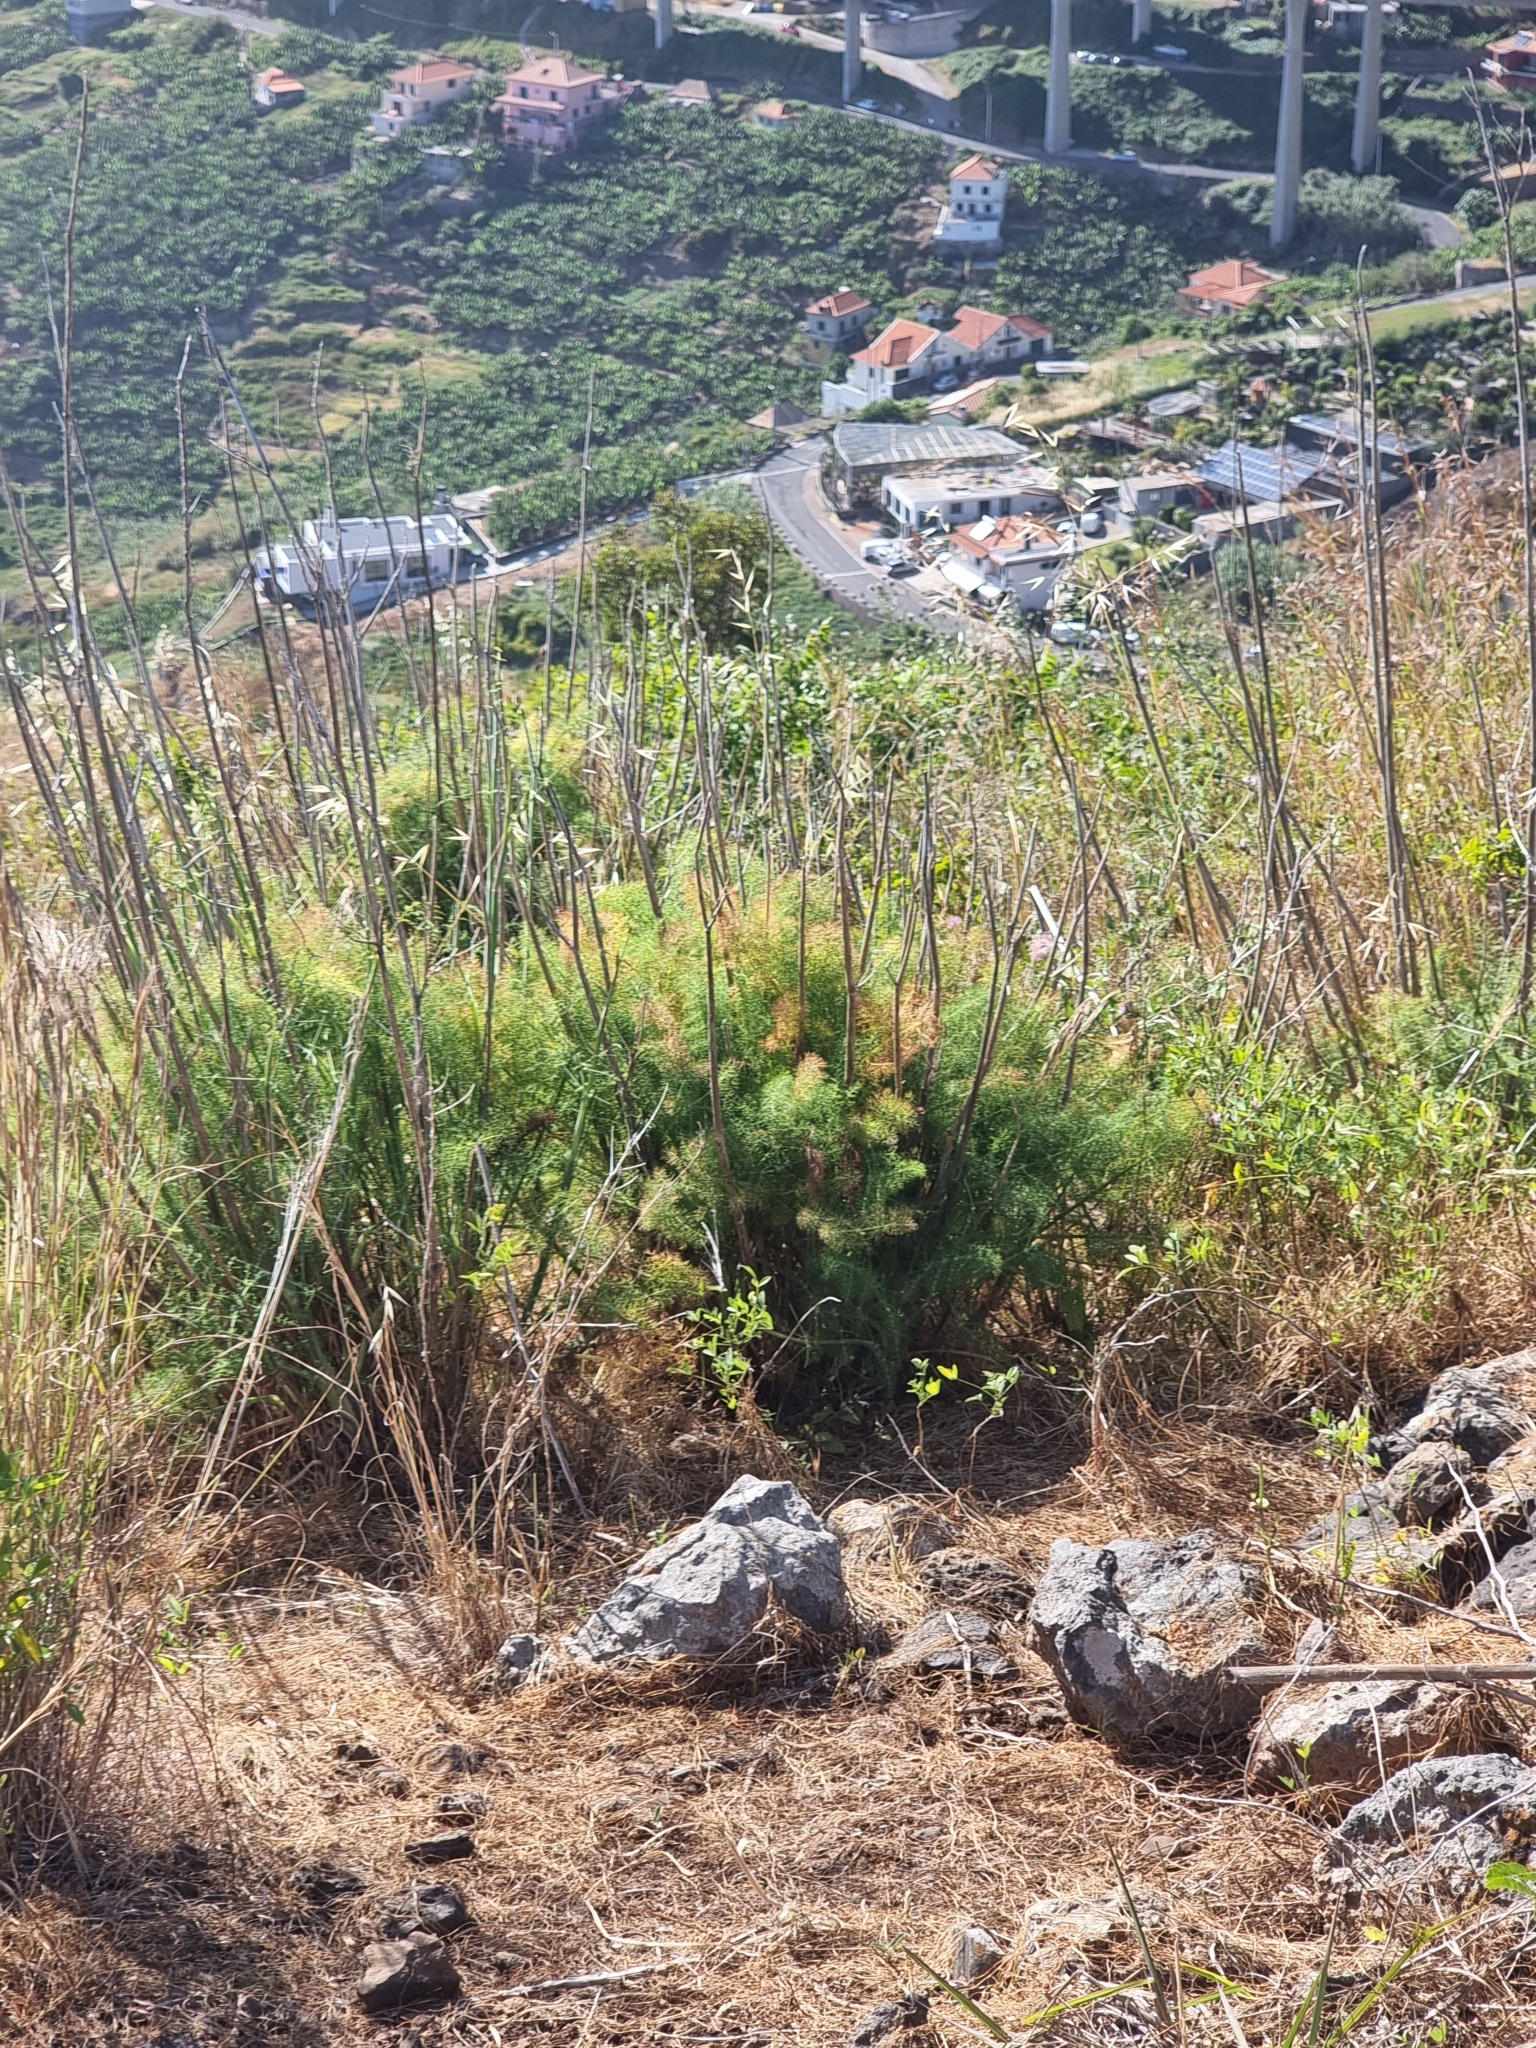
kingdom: Plantae
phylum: Tracheophyta
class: Magnoliopsida
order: Apiales
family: Apiaceae
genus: Foeniculum
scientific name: Foeniculum vulgare
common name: Fennel
